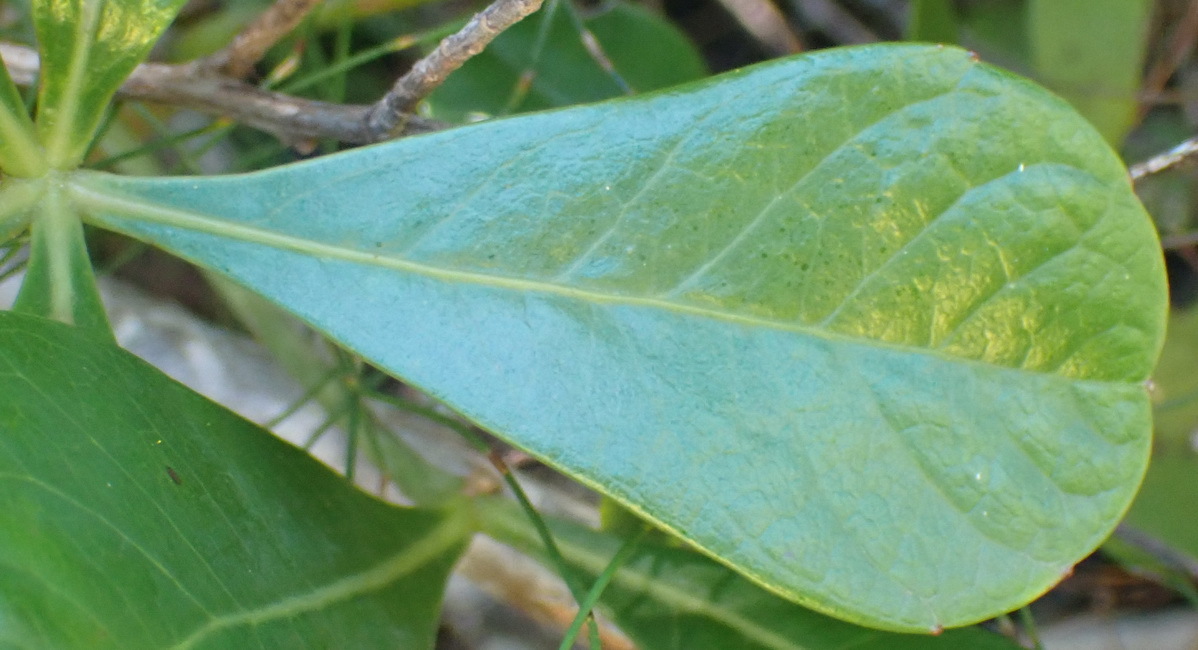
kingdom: Plantae
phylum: Tracheophyta
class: Magnoliopsida
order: Apiales
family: Araliaceae
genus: Cussonia
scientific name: Cussonia thyrsiflora
